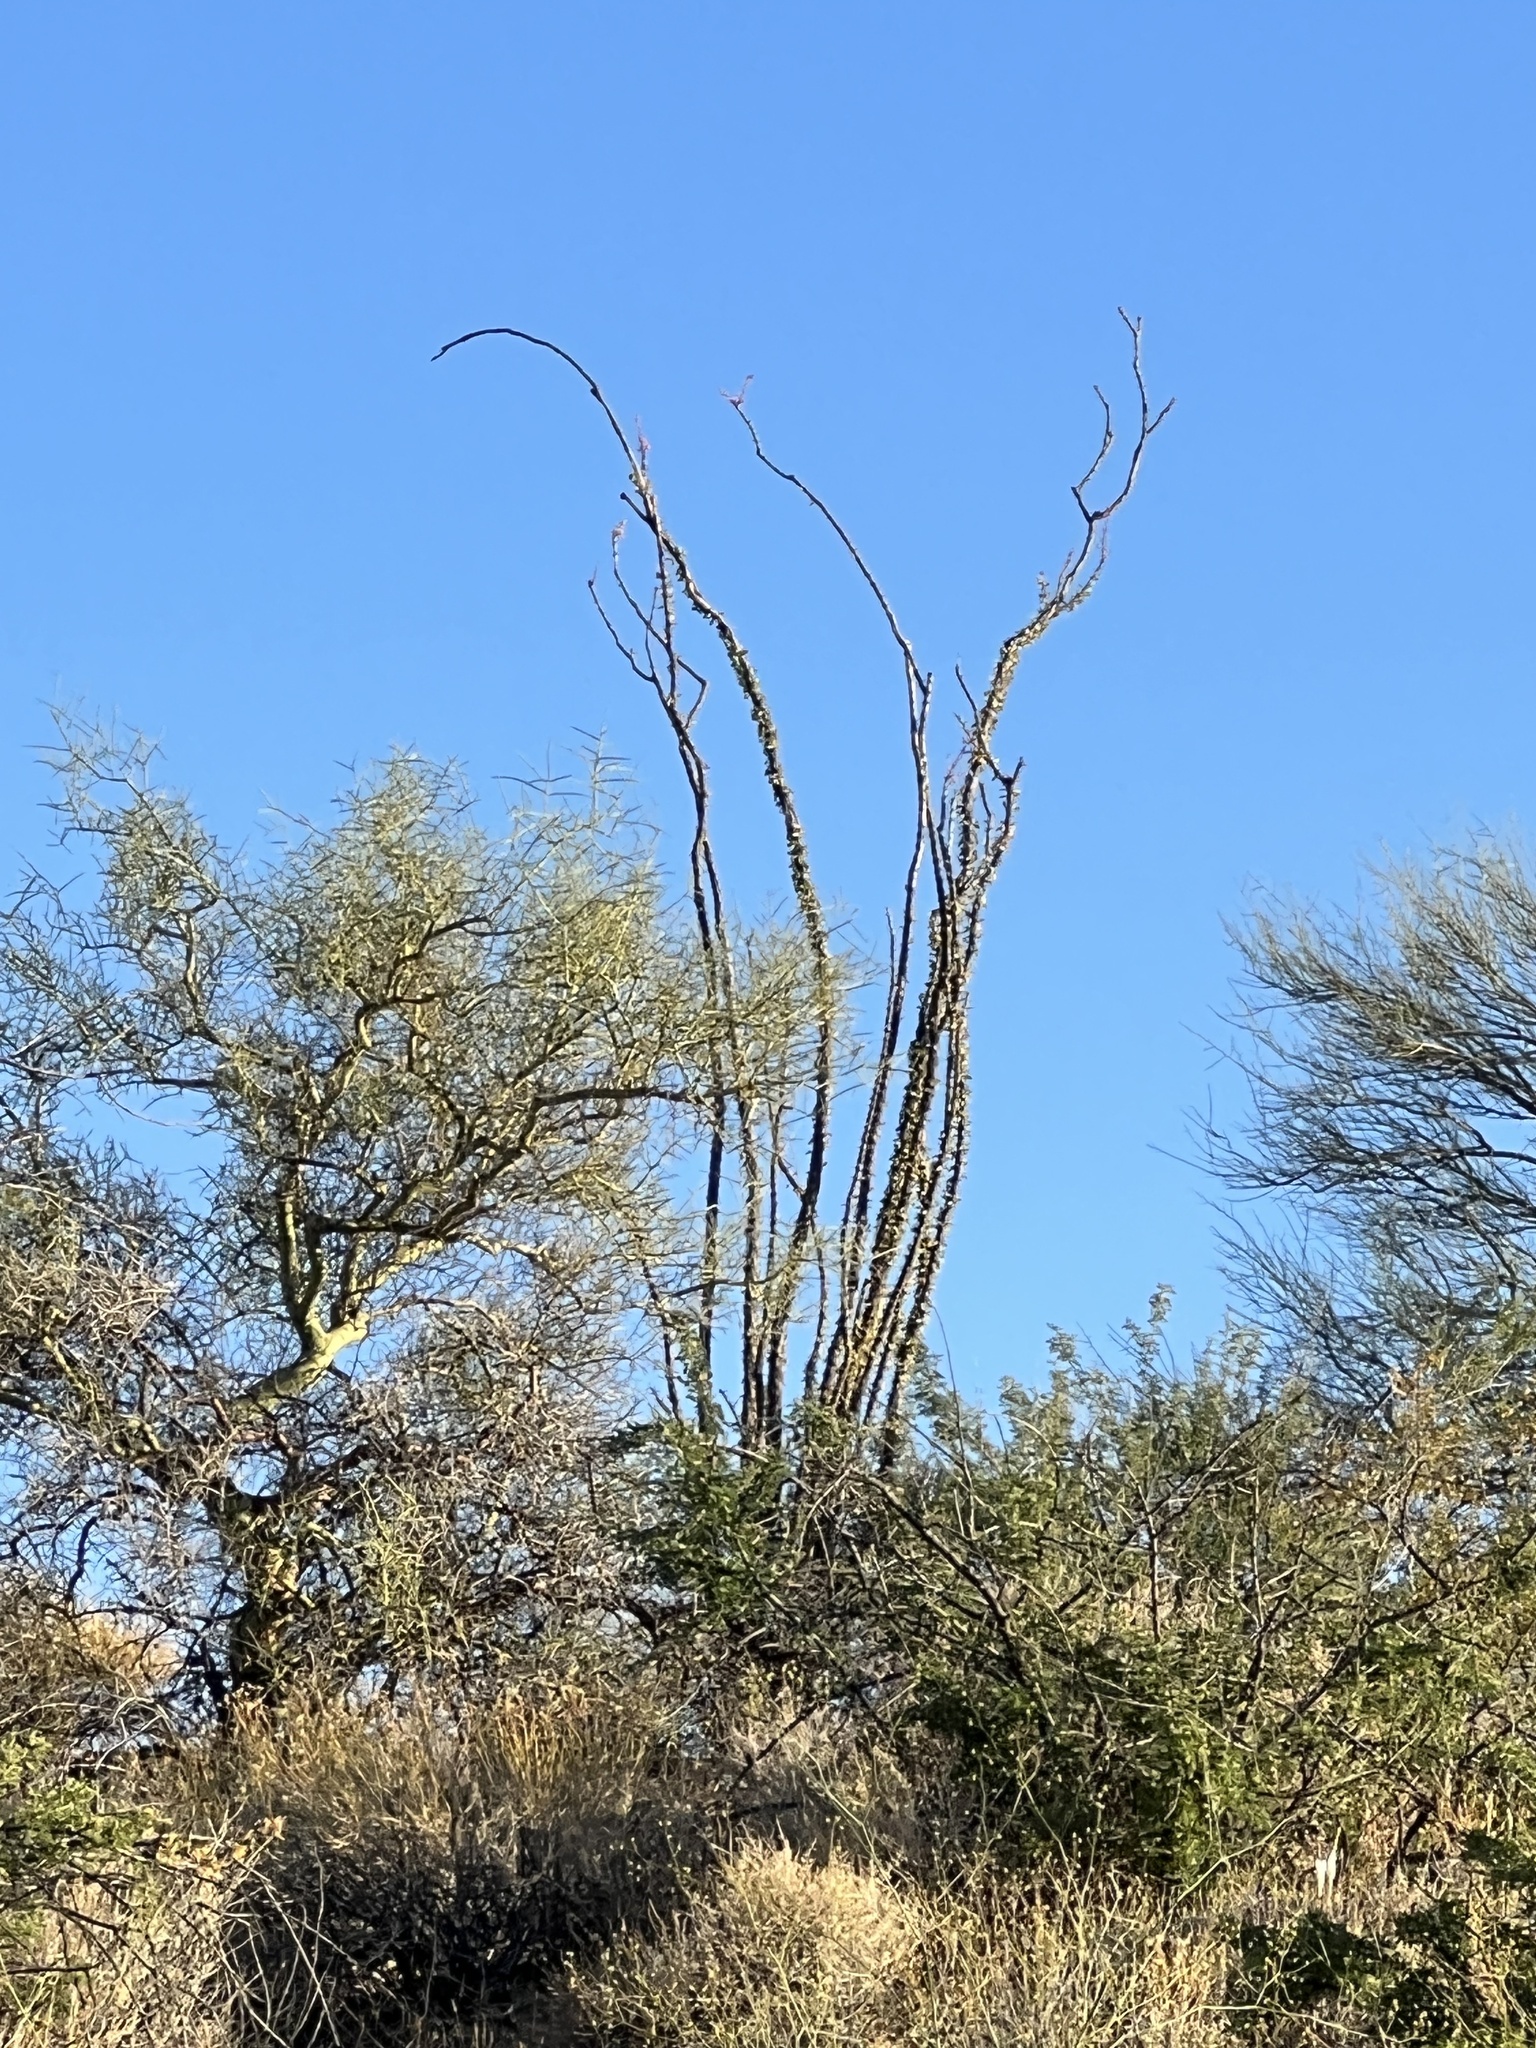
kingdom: Plantae
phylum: Tracheophyta
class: Magnoliopsida
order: Ericales
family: Fouquieriaceae
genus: Fouquieria
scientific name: Fouquieria splendens
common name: Vine-cactus
